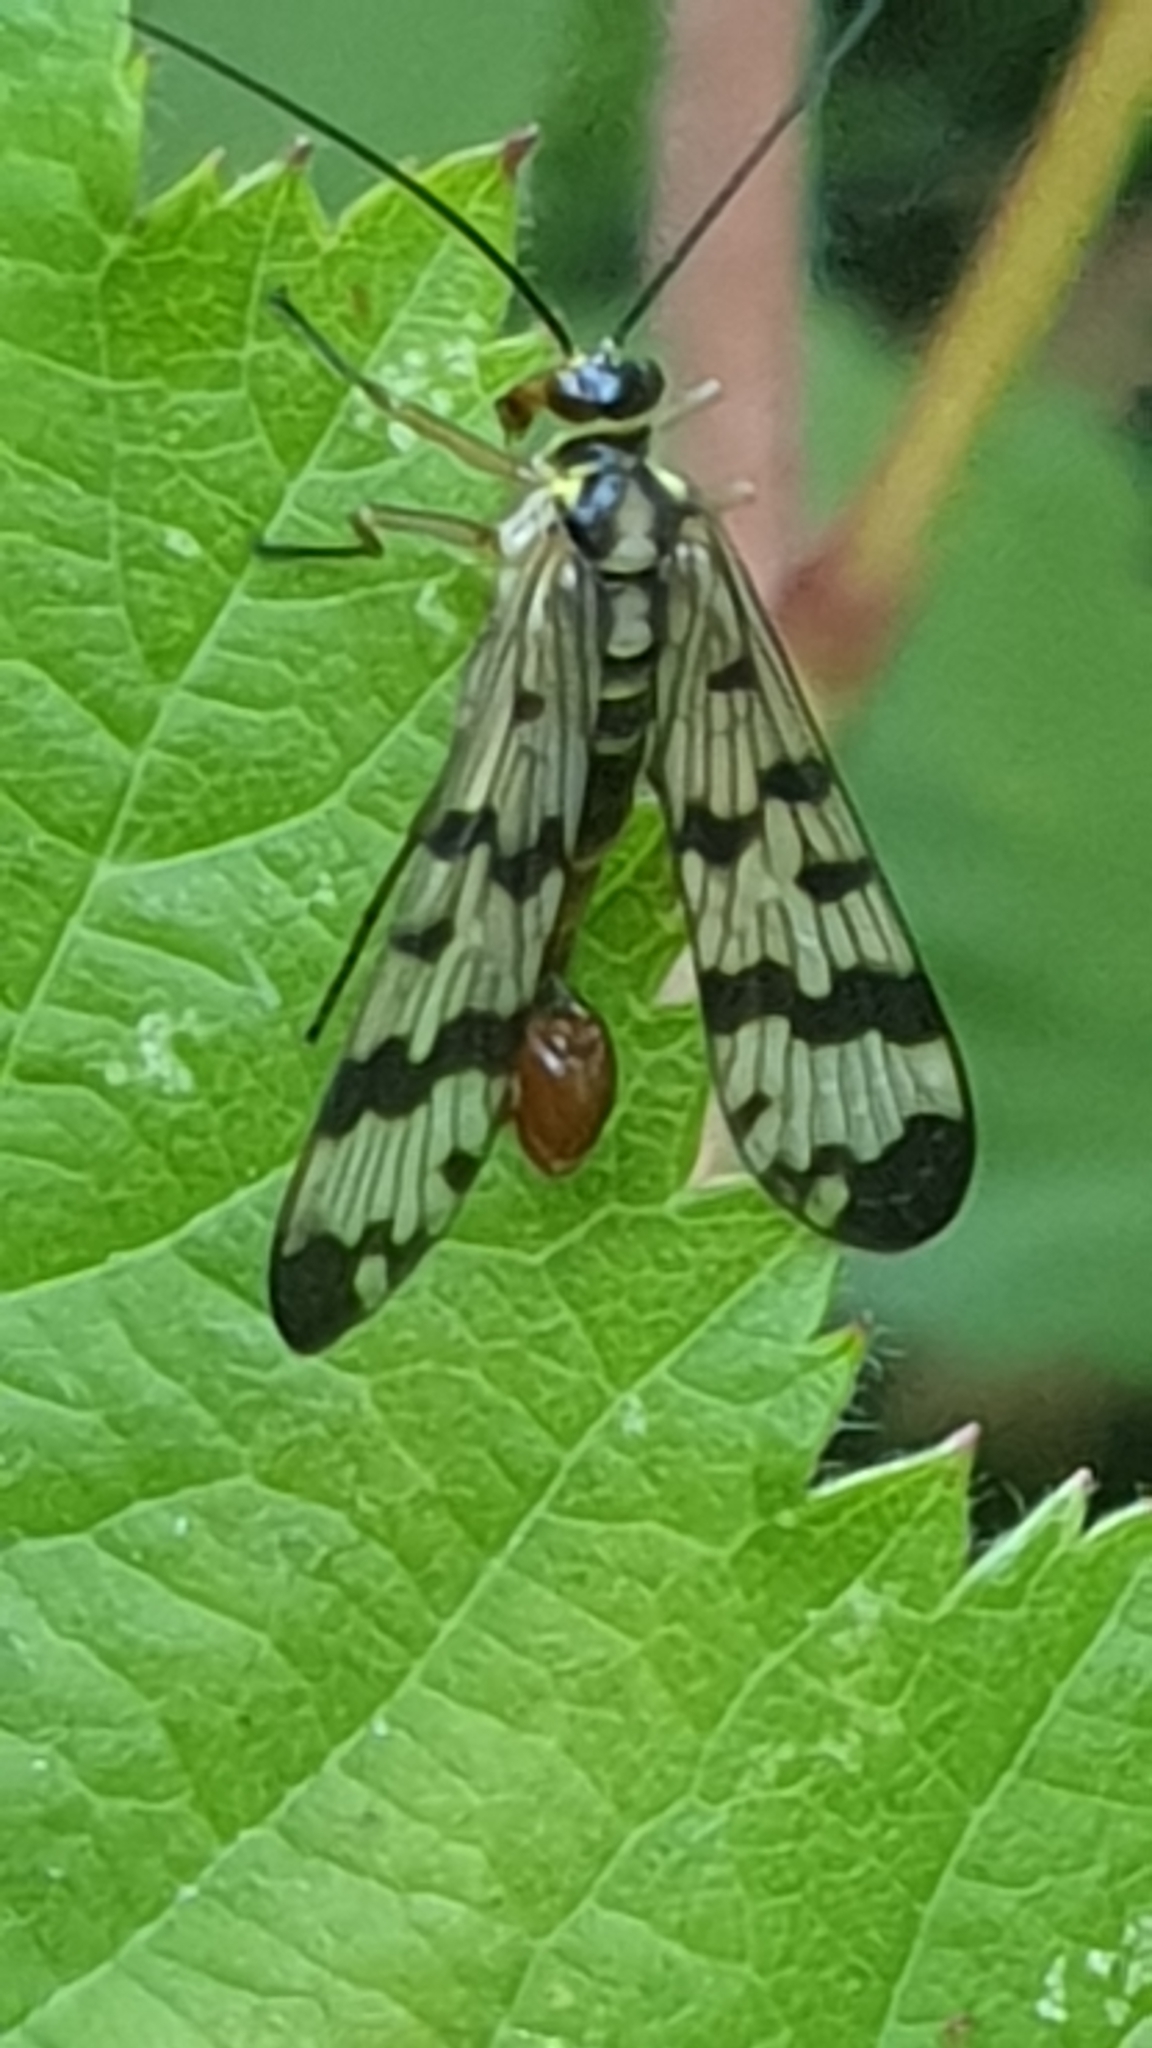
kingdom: Animalia
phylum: Arthropoda
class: Insecta
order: Mecoptera
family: Panorpidae
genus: Panorpa
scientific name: Panorpa communis
